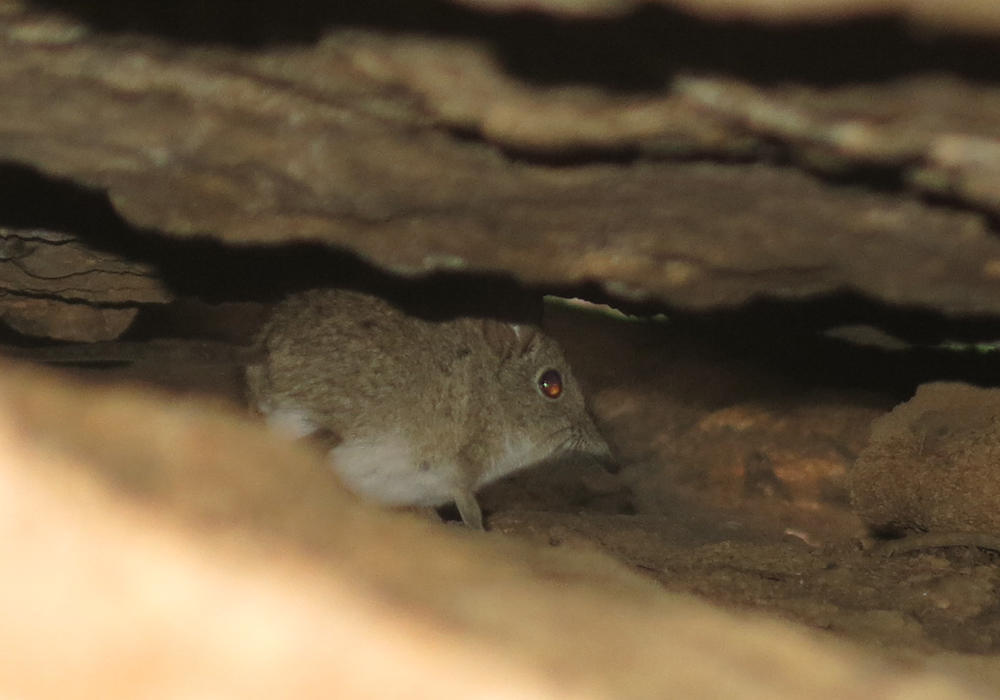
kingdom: Animalia
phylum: Chordata
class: Mammalia
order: Macroscelidea
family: Macroscelididae
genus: Elephantulus
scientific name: Elephantulus myurus
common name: Eastern rock elephant shrew
